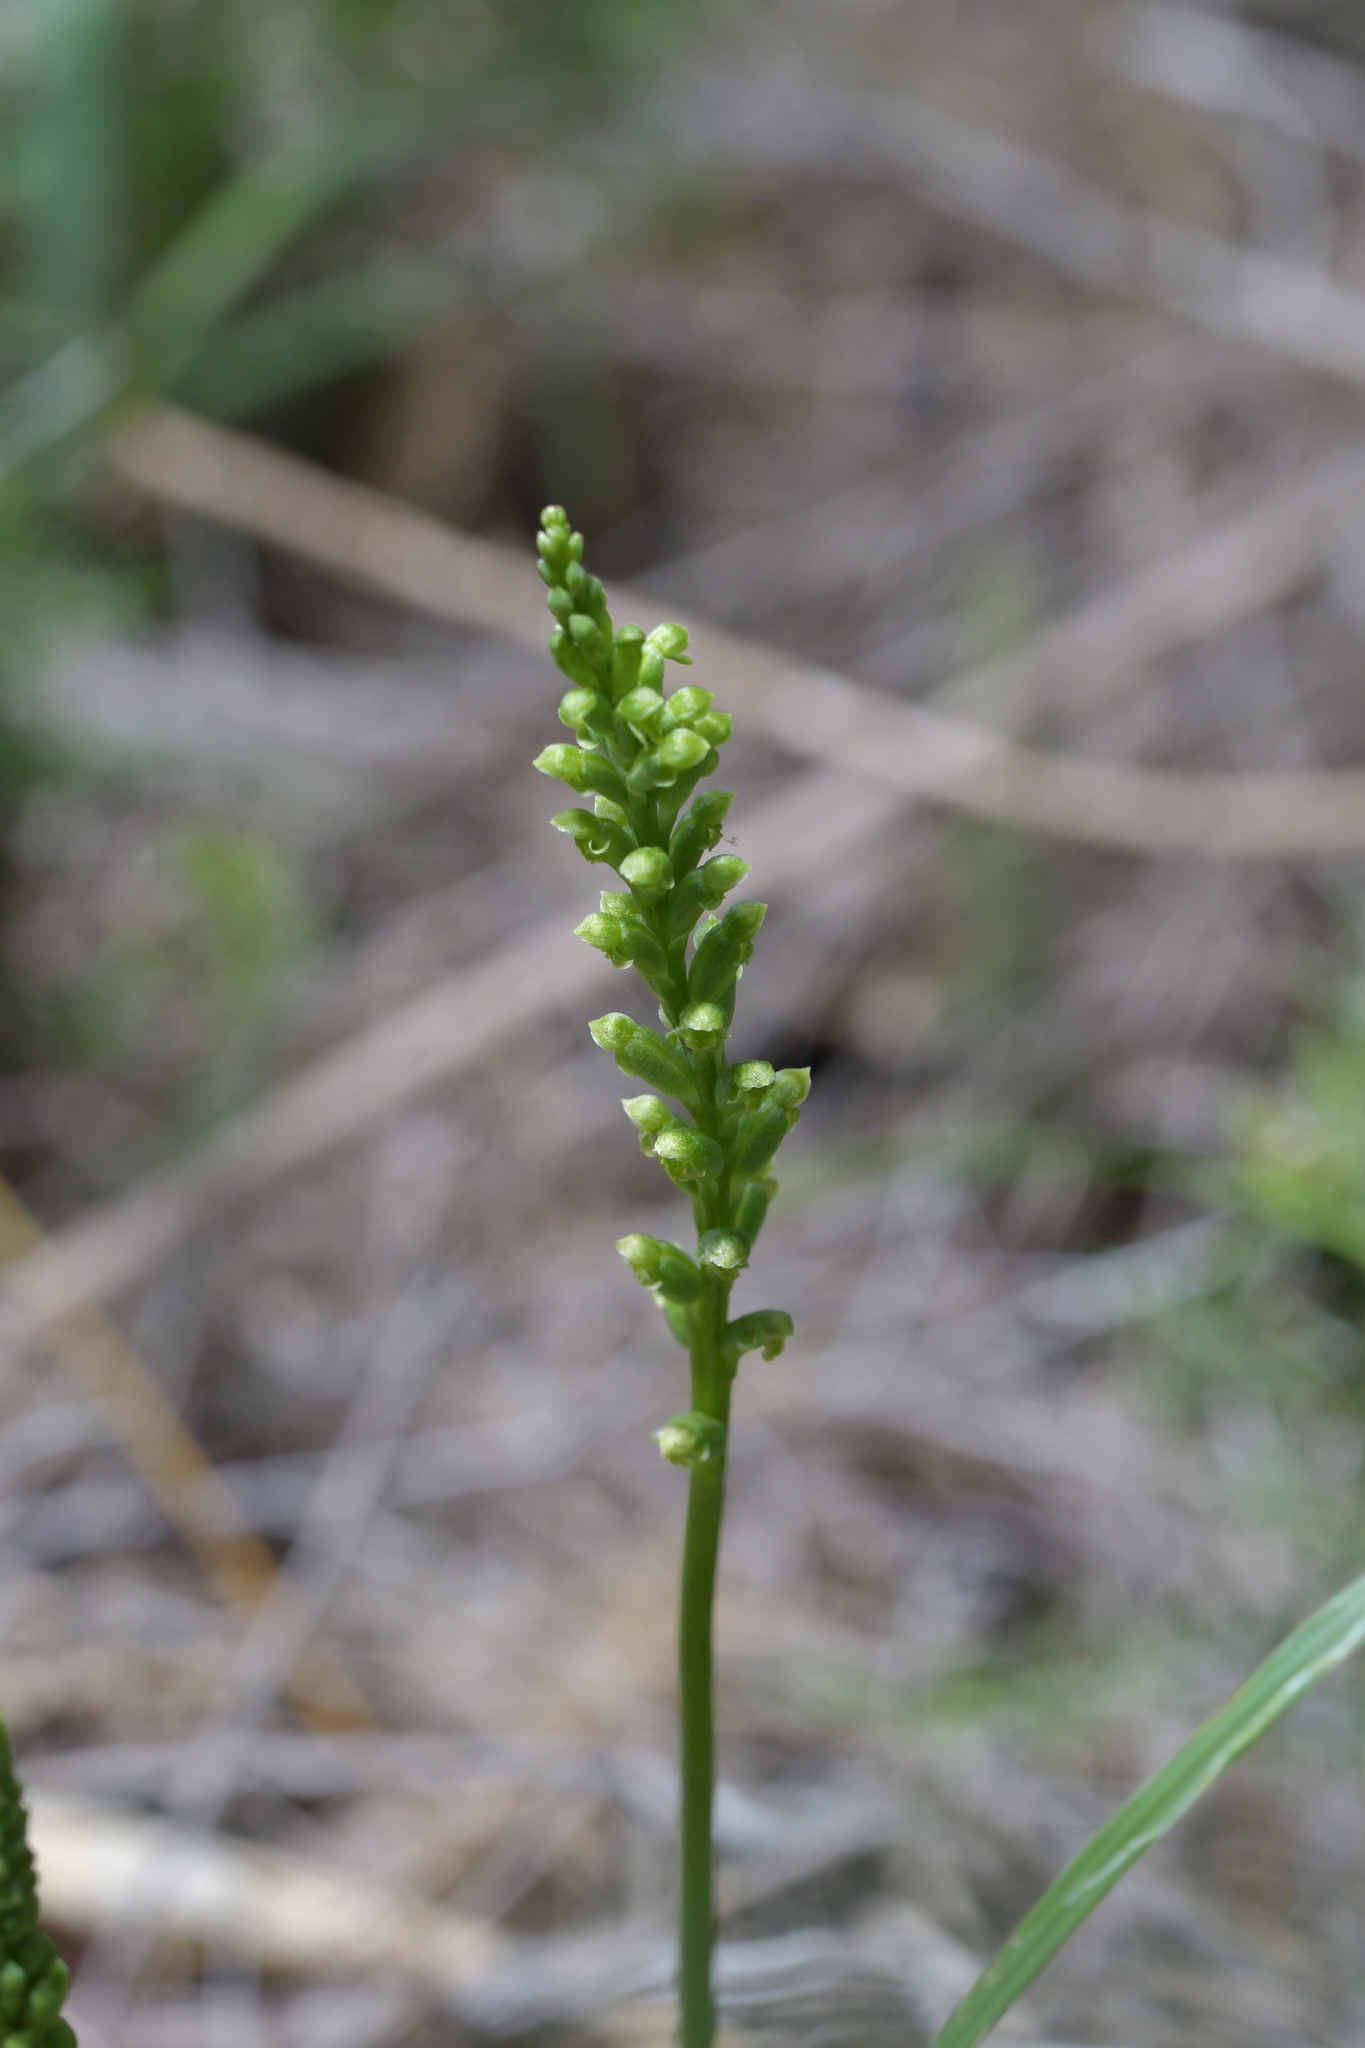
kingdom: Plantae
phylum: Tracheophyta
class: Liliopsida
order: Asparagales
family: Orchidaceae
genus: Microtis
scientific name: Microtis unifolia
